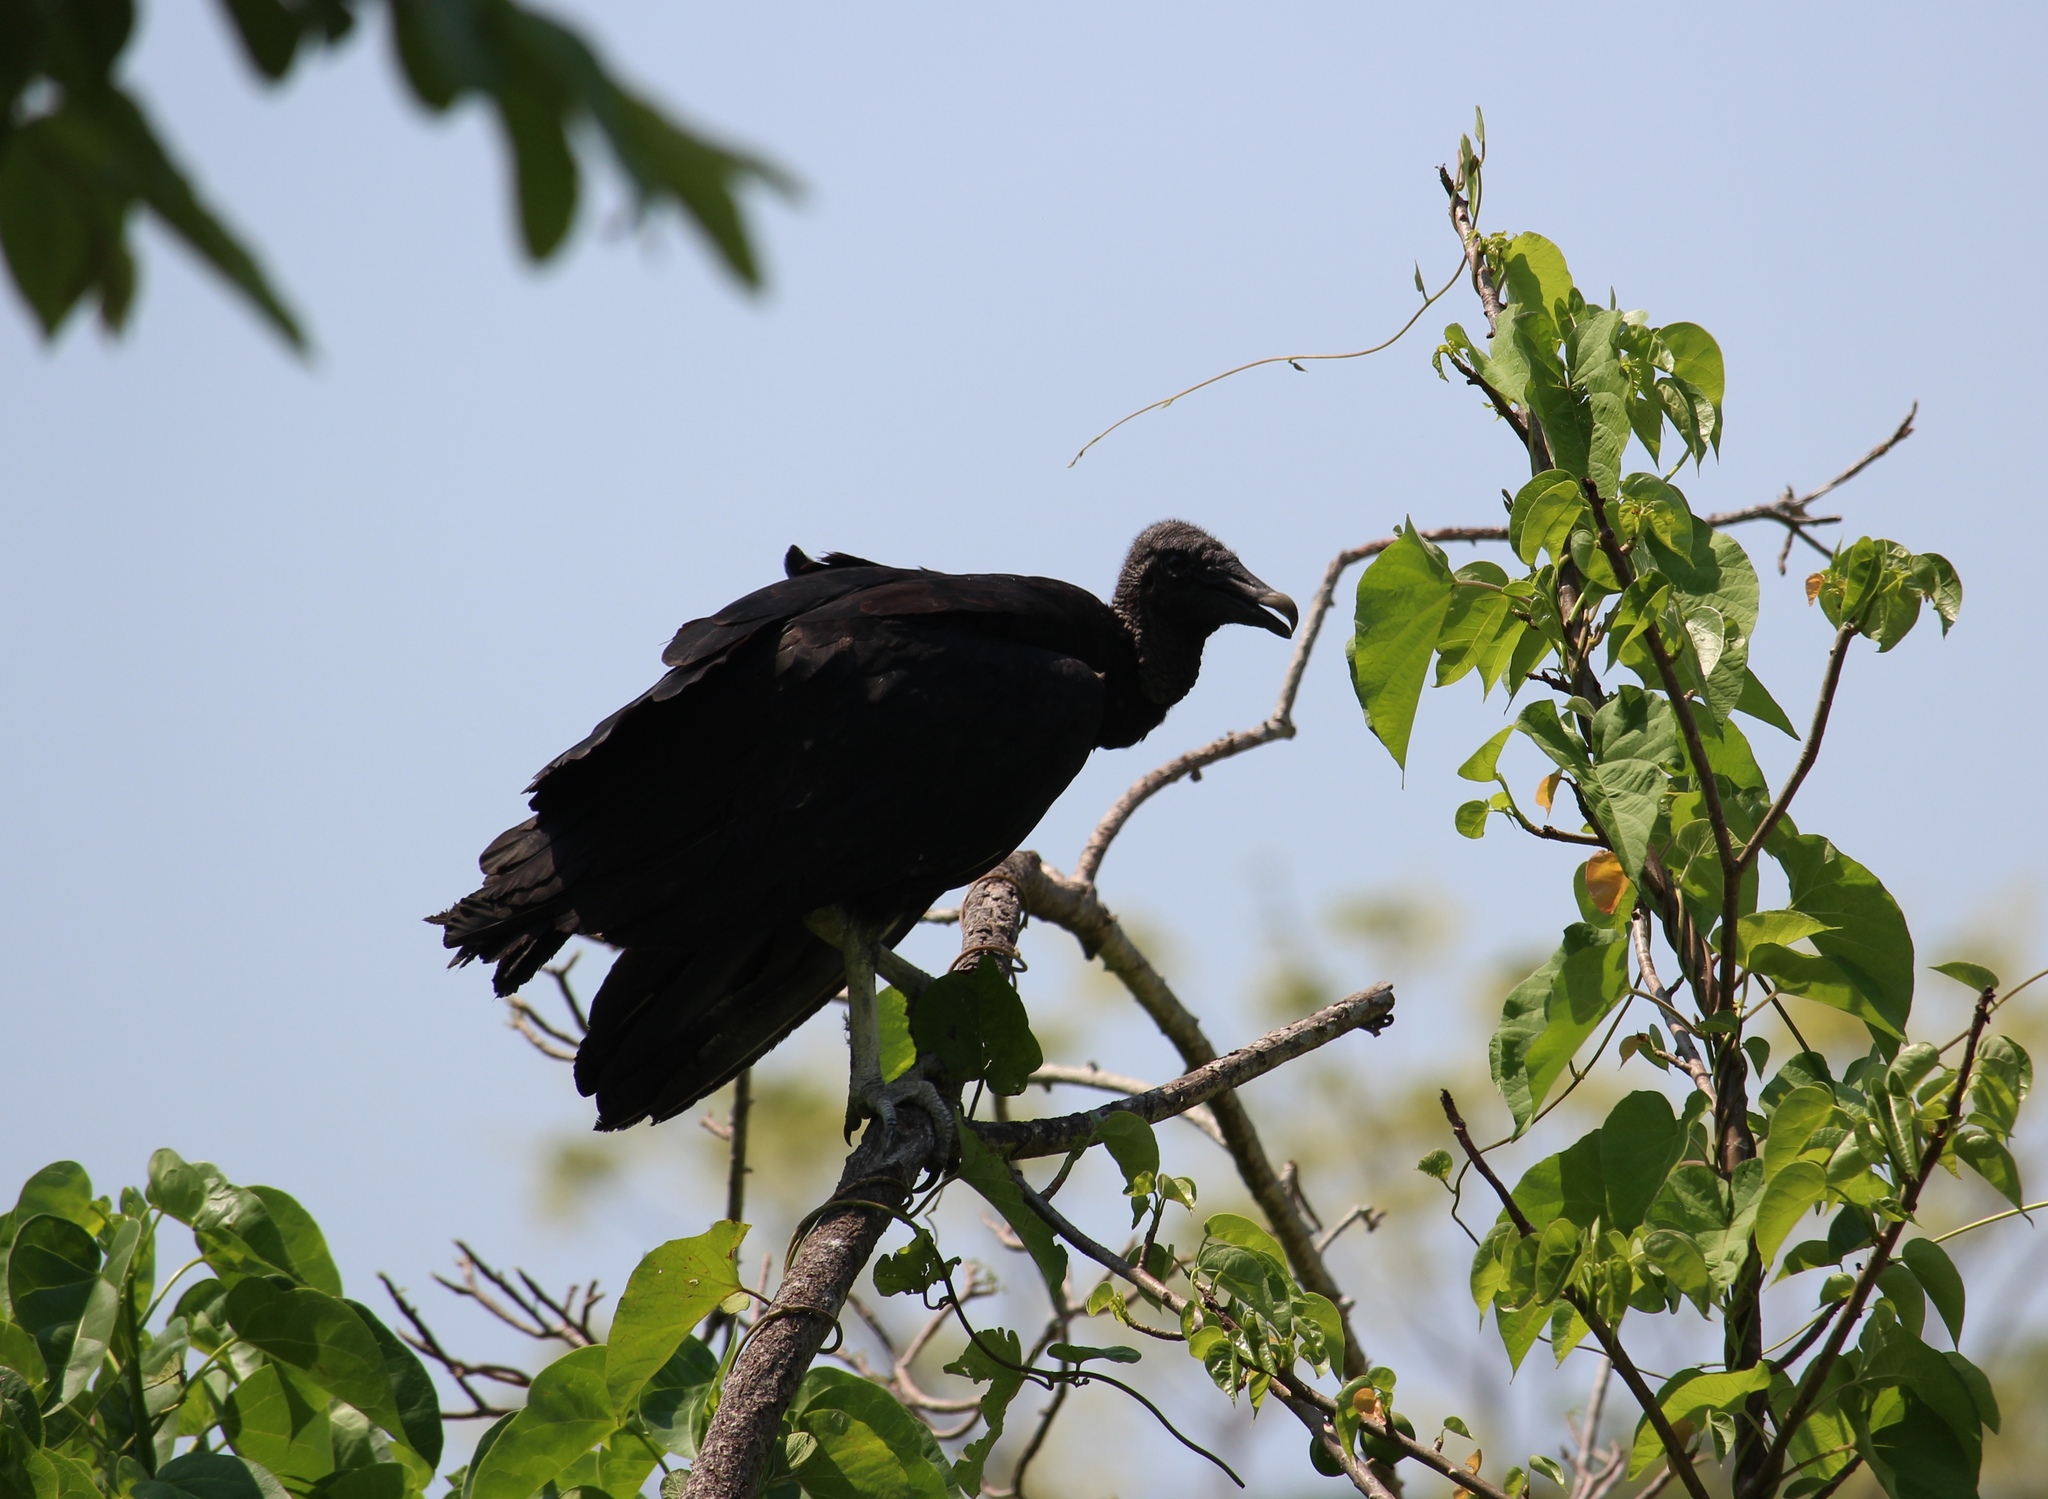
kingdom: Animalia
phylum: Chordata
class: Aves
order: Accipitriformes
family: Cathartidae
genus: Coragyps
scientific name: Coragyps atratus
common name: Black vulture
